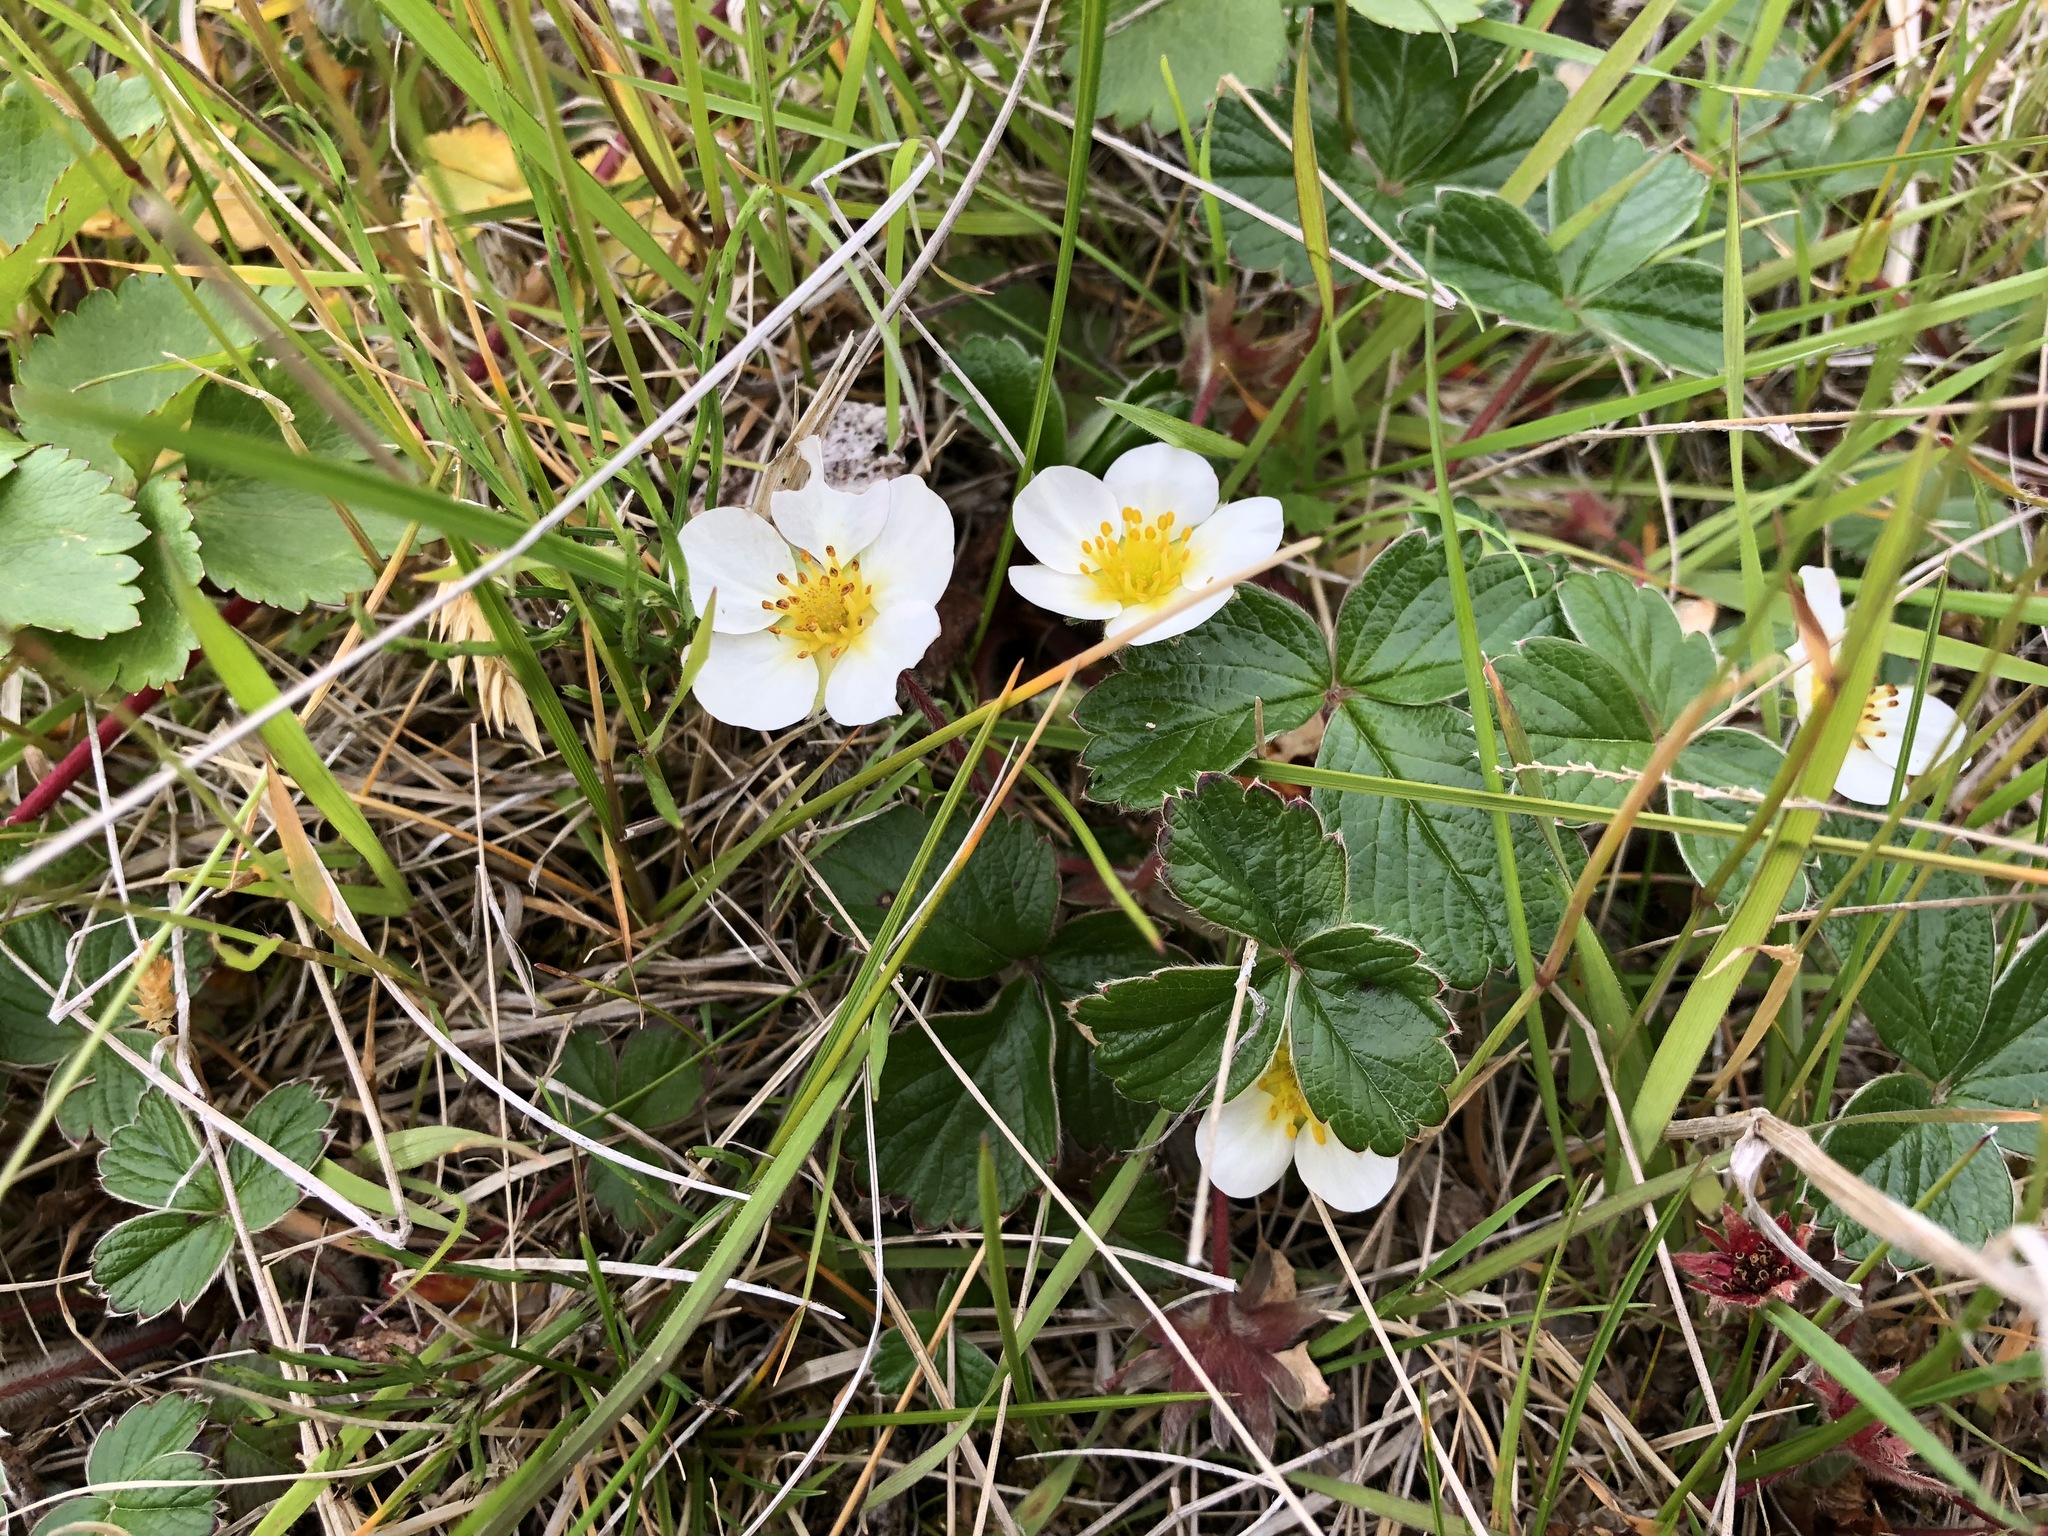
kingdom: Plantae
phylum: Tracheophyta
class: Magnoliopsida
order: Rosales
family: Rosaceae
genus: Fragaria
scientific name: Fragaria chiloensis
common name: Beach strawberry
